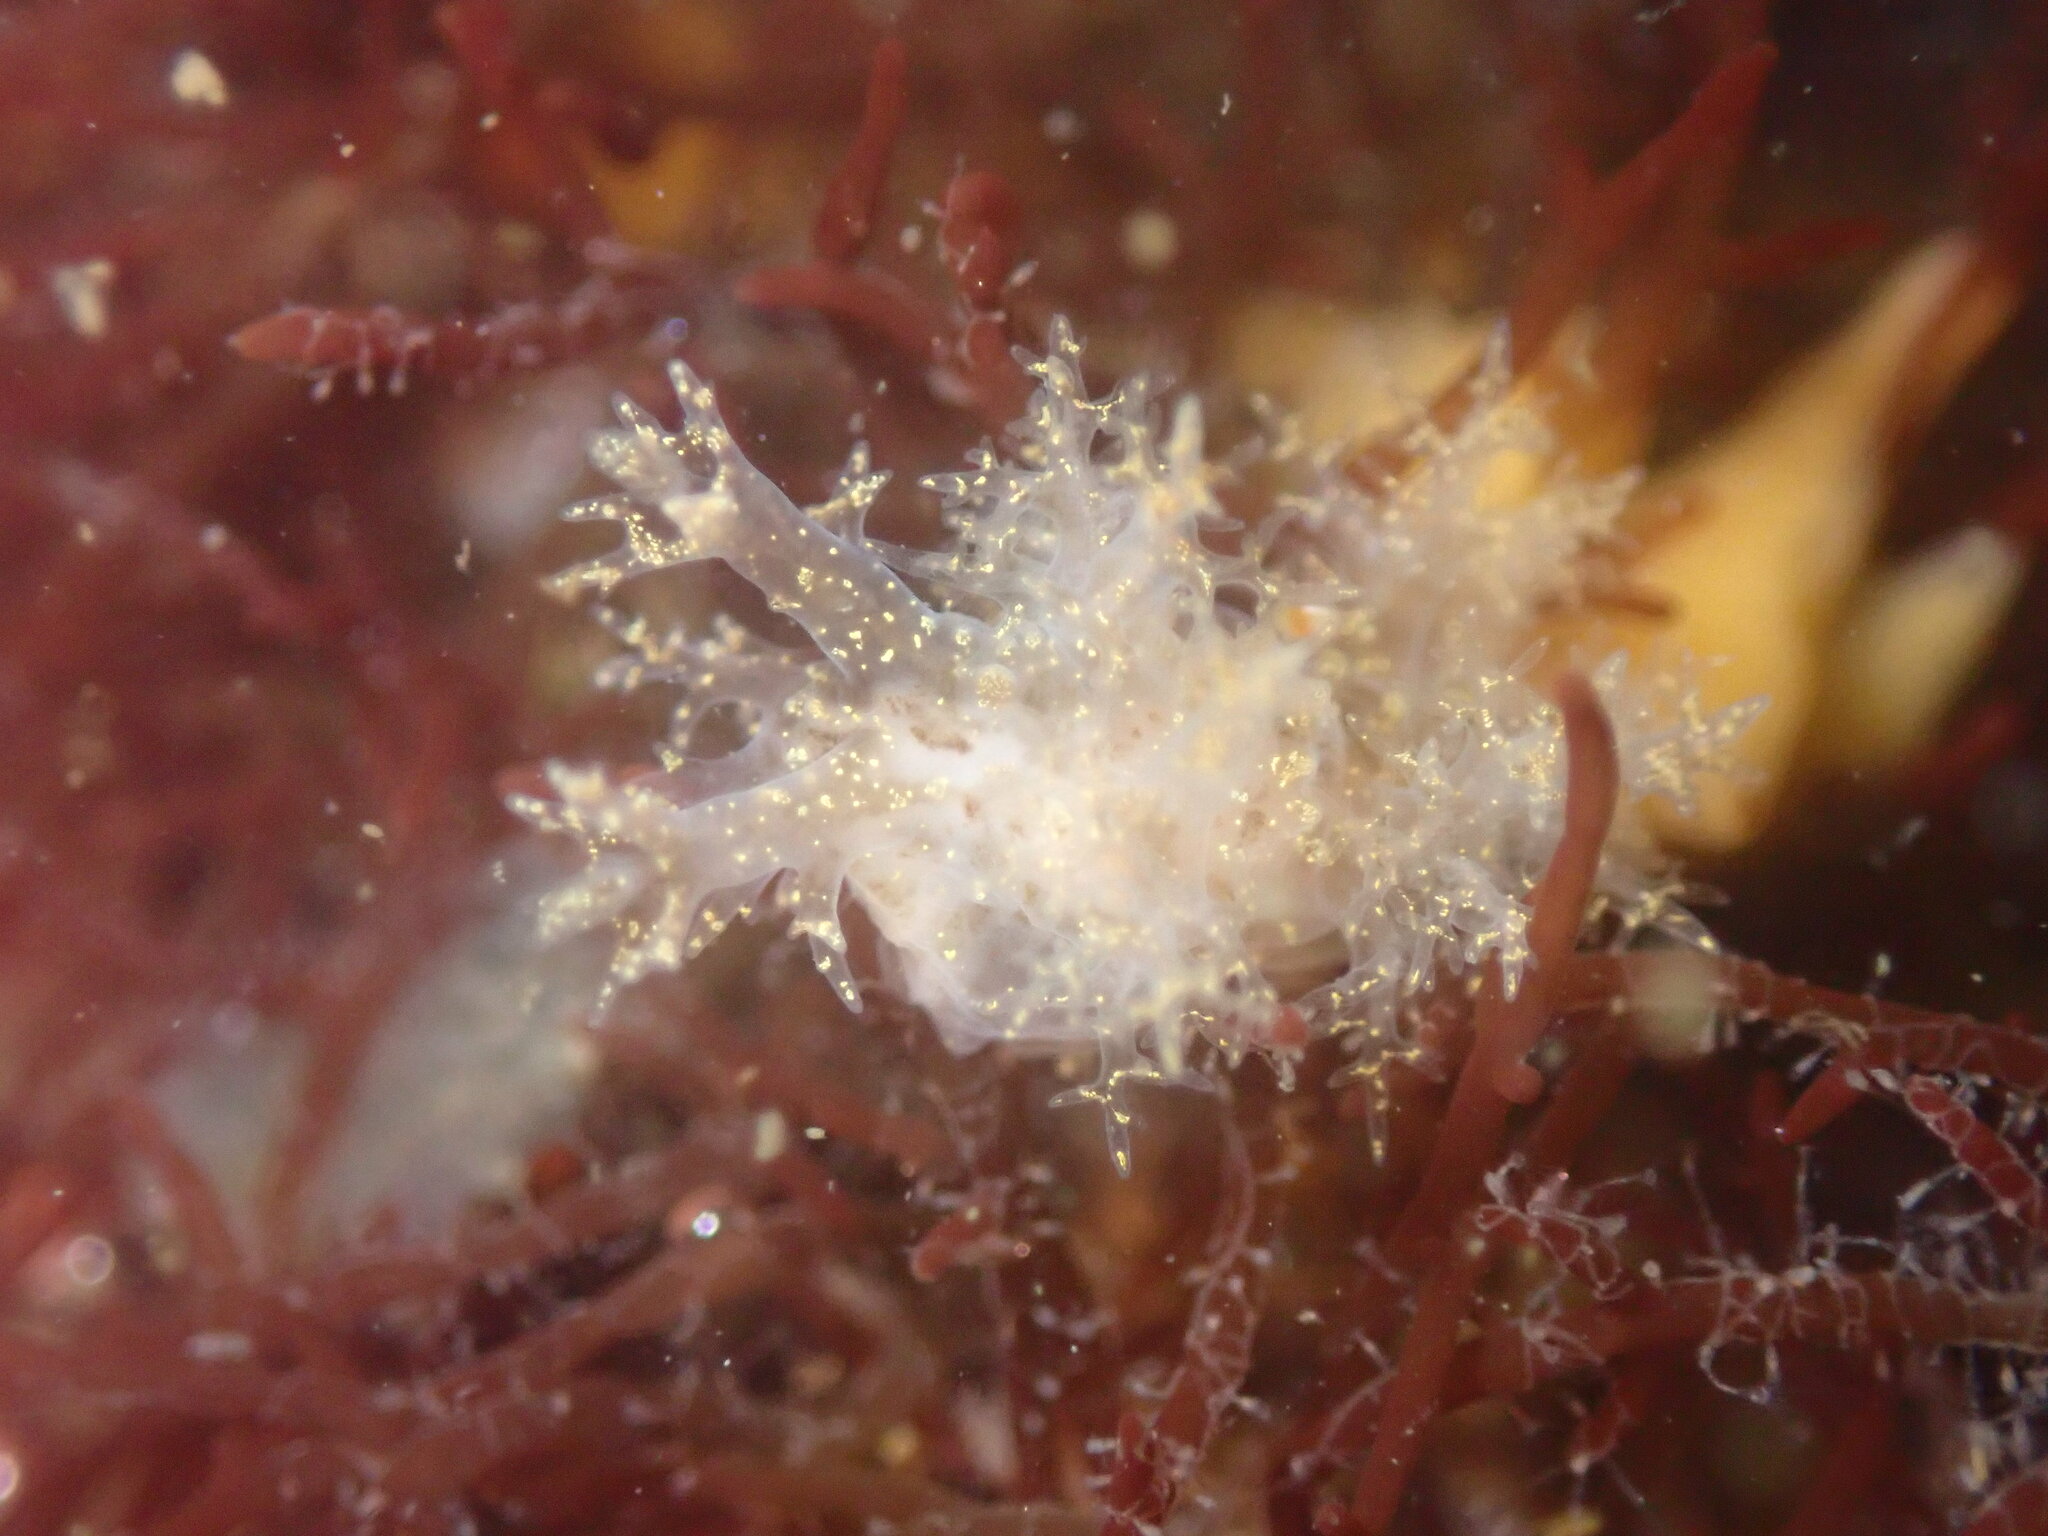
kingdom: Animalia
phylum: Mollusca
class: Gastropoda
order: Nudibranchia
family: Dendronotidae
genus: Dendronotus
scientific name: Dendronotus venustus
